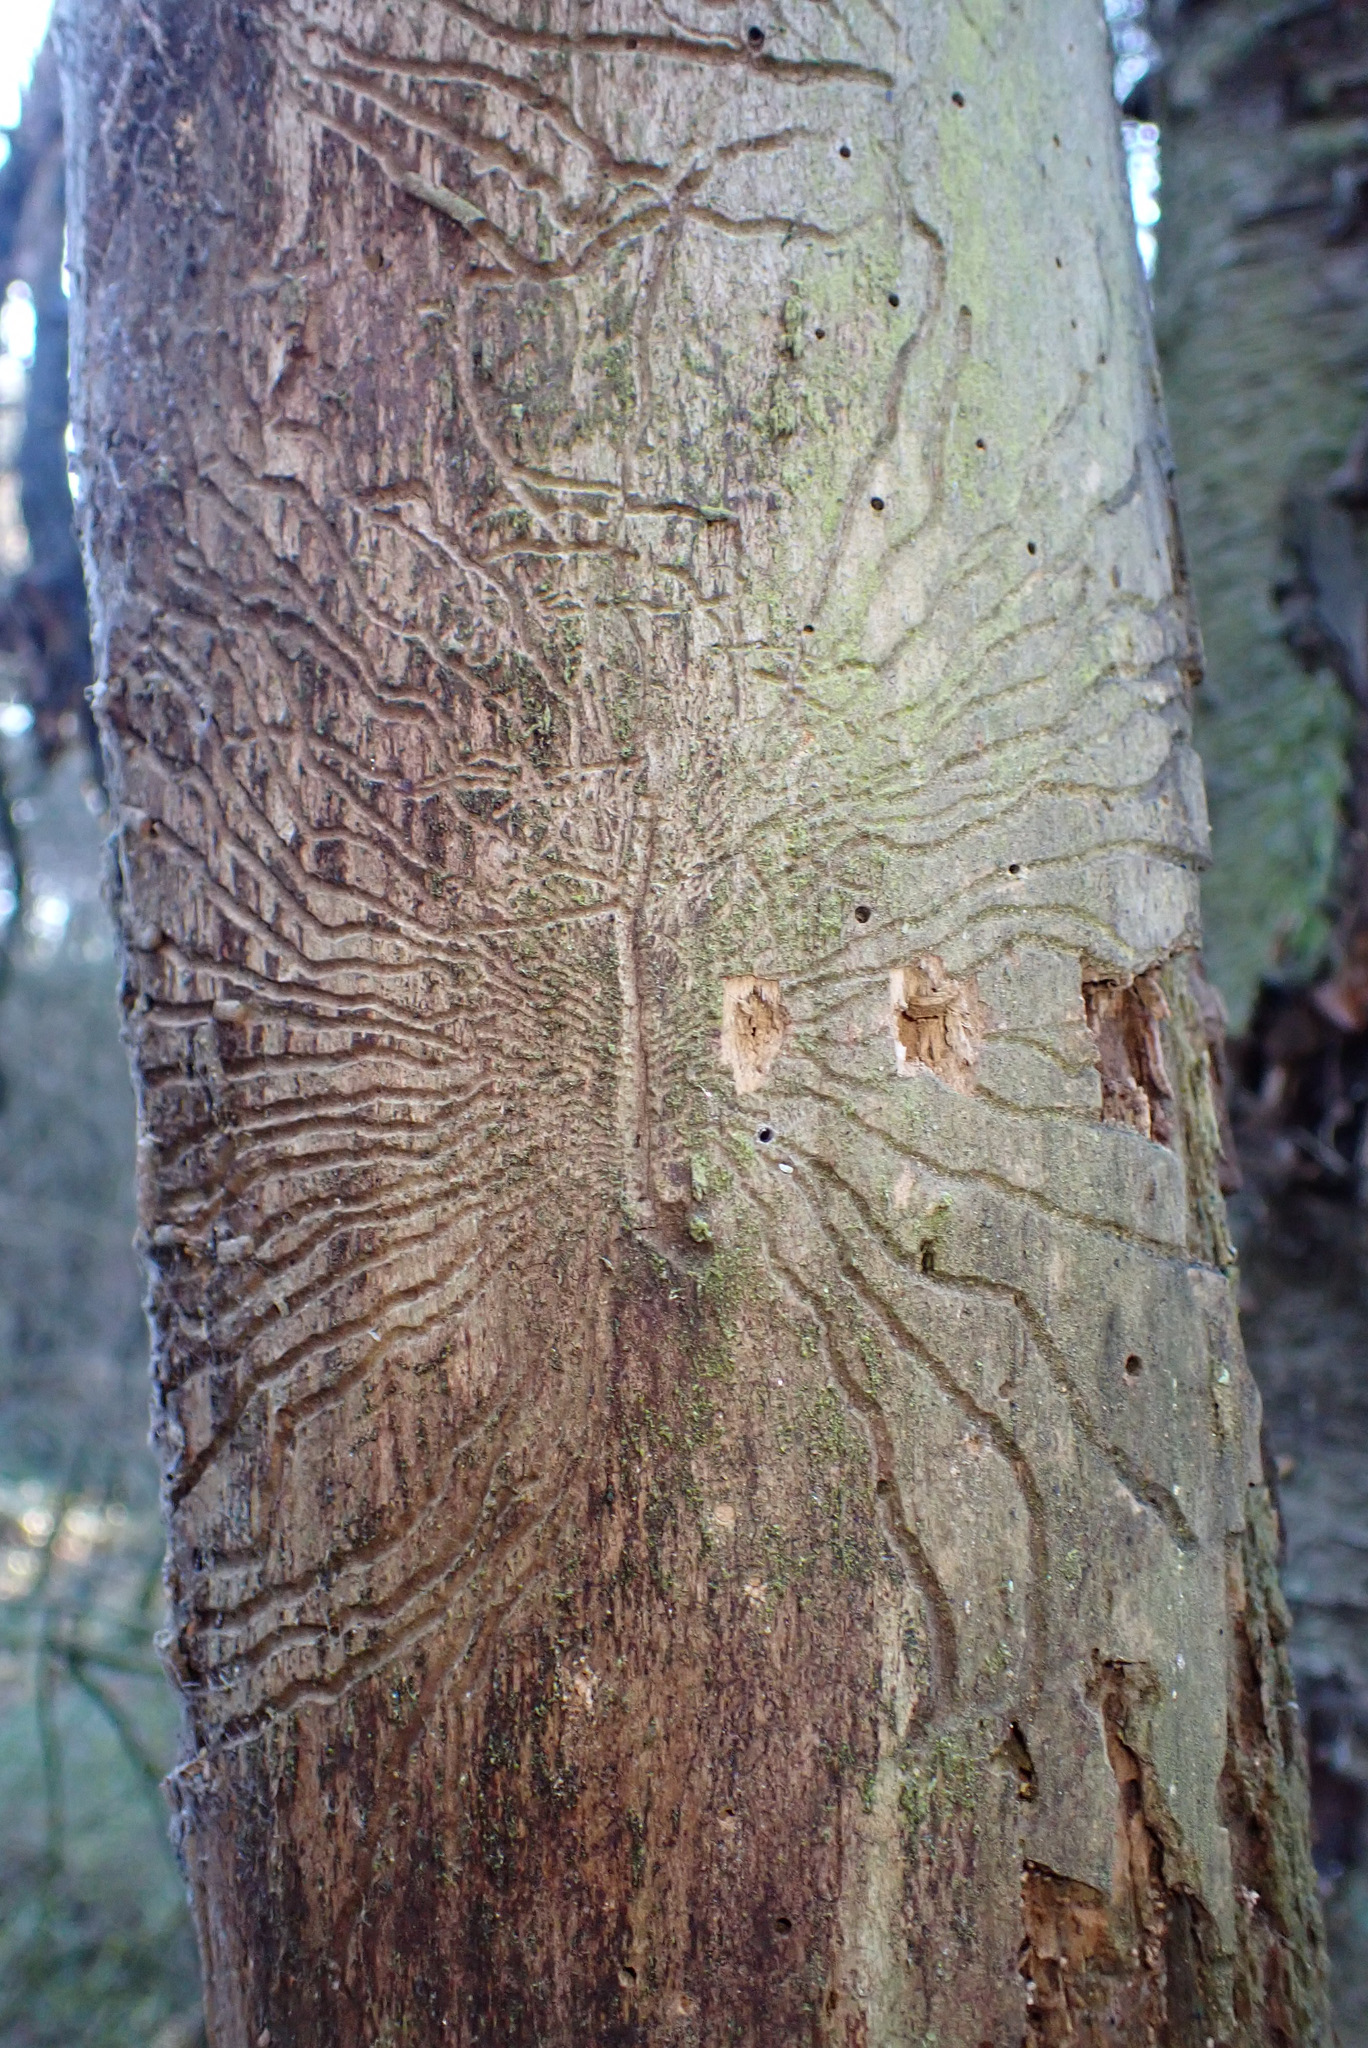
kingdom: Animalia
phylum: Arthropoda
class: Insecta
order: Coleoptera
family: Curculionidae
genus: Scolytus
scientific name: Scolytus mali
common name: Large fruit bark beetle
